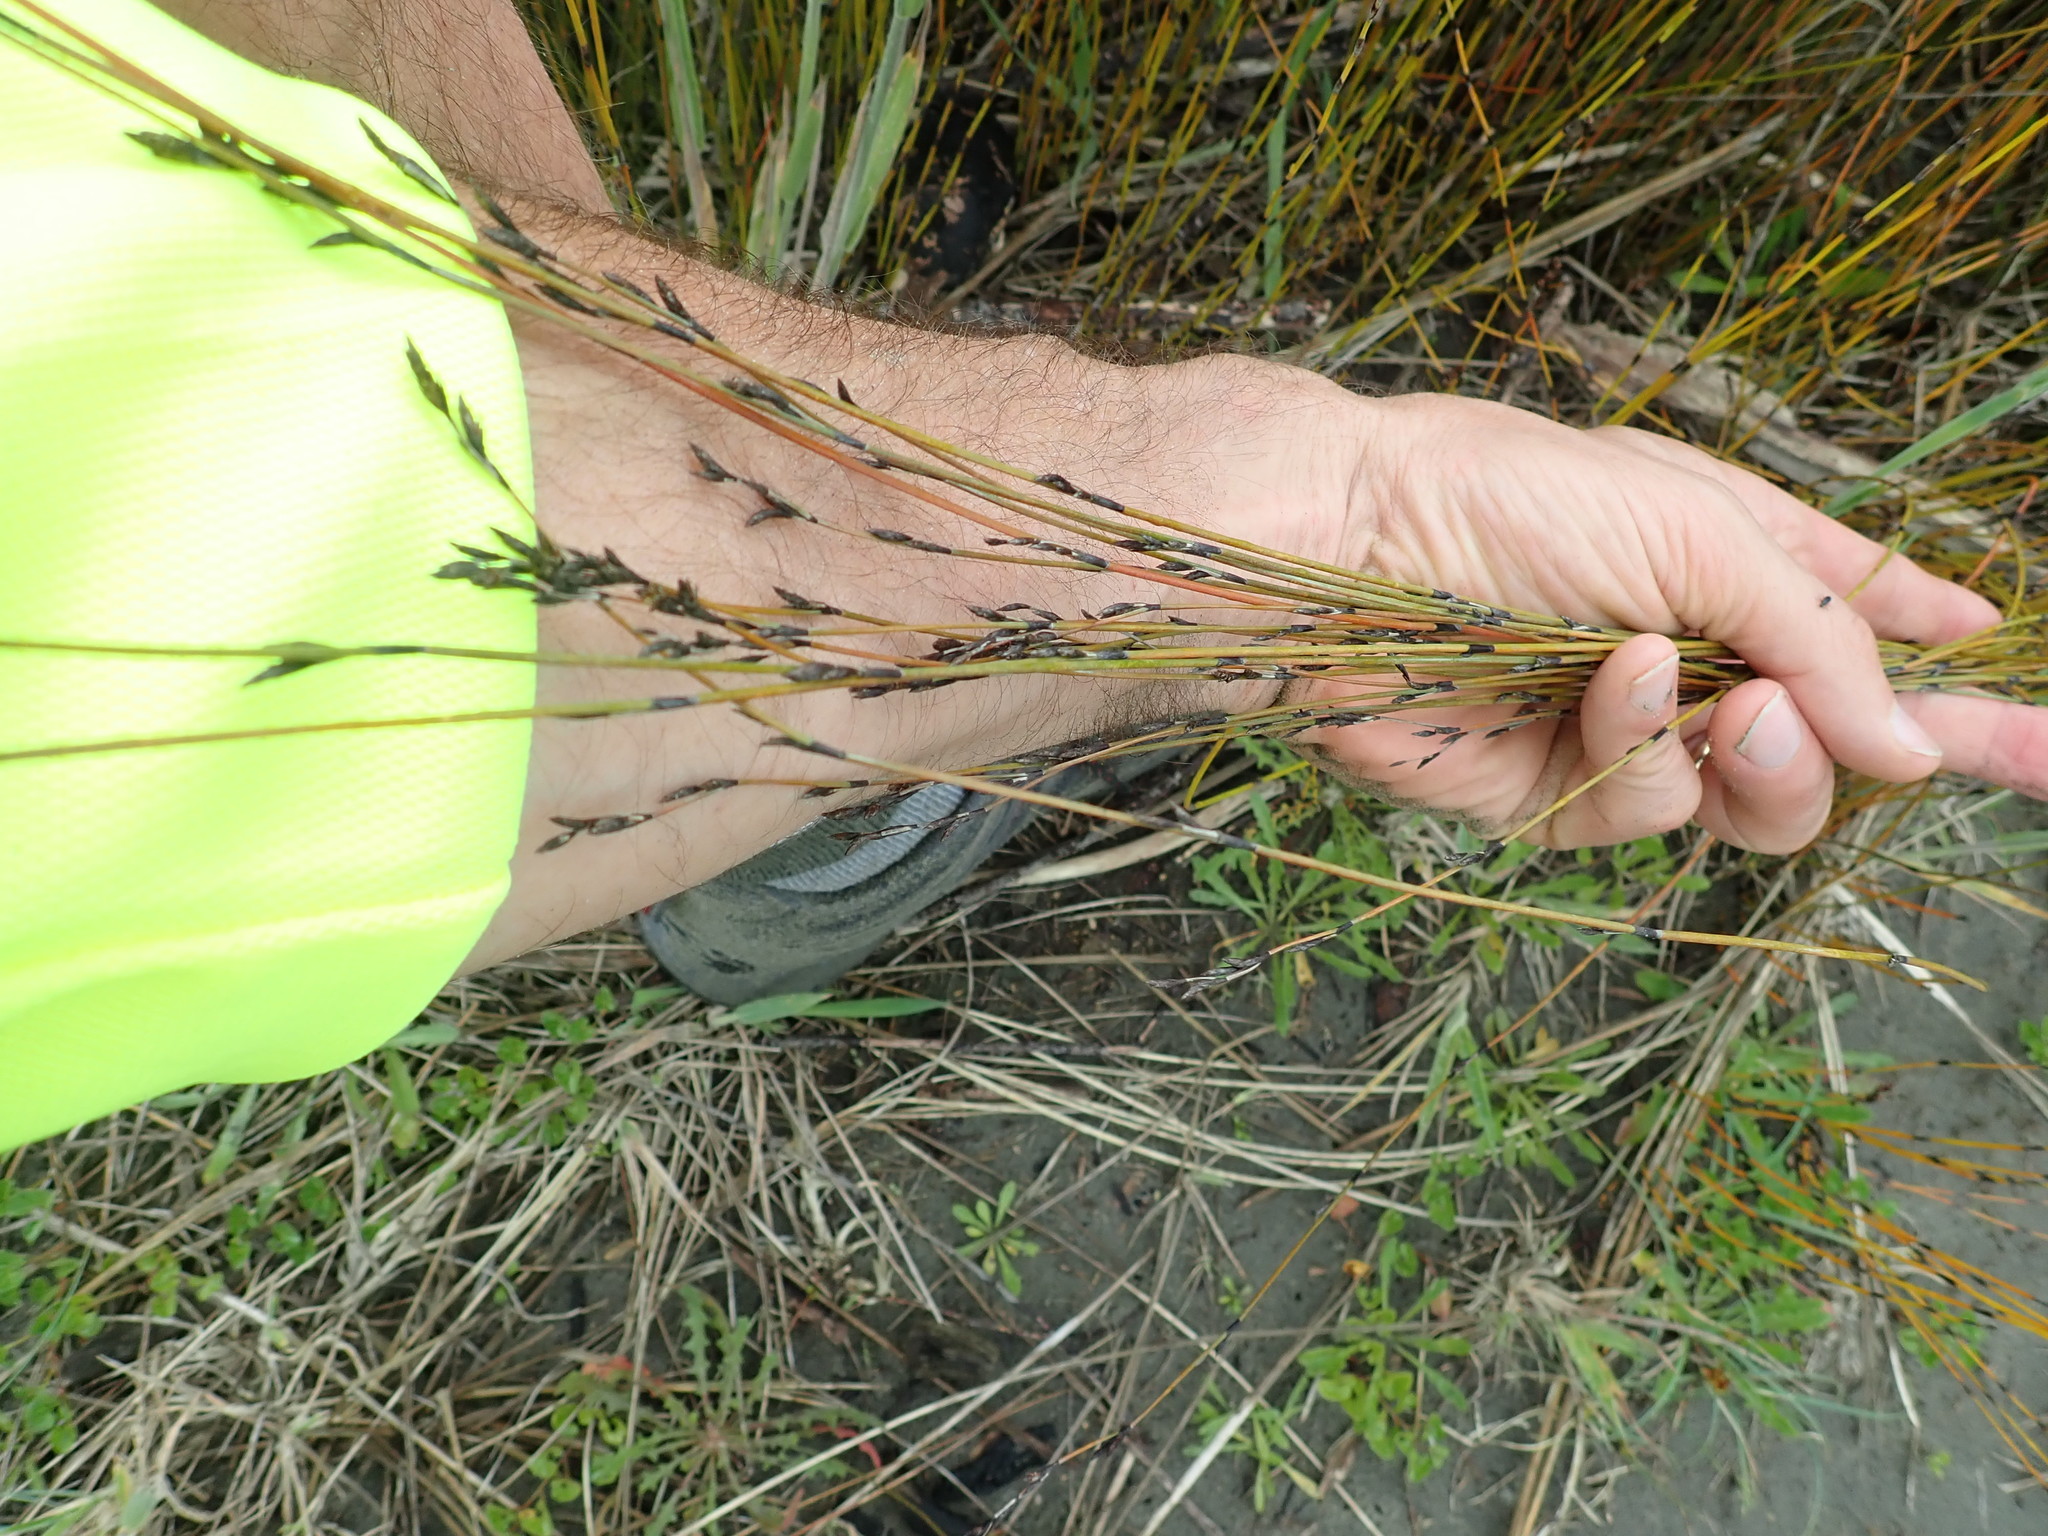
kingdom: Plantae
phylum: Tracheophyta
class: Liliopsida
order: Poales
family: Restionaceae
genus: Apodasmia
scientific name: Apodasmia similis
